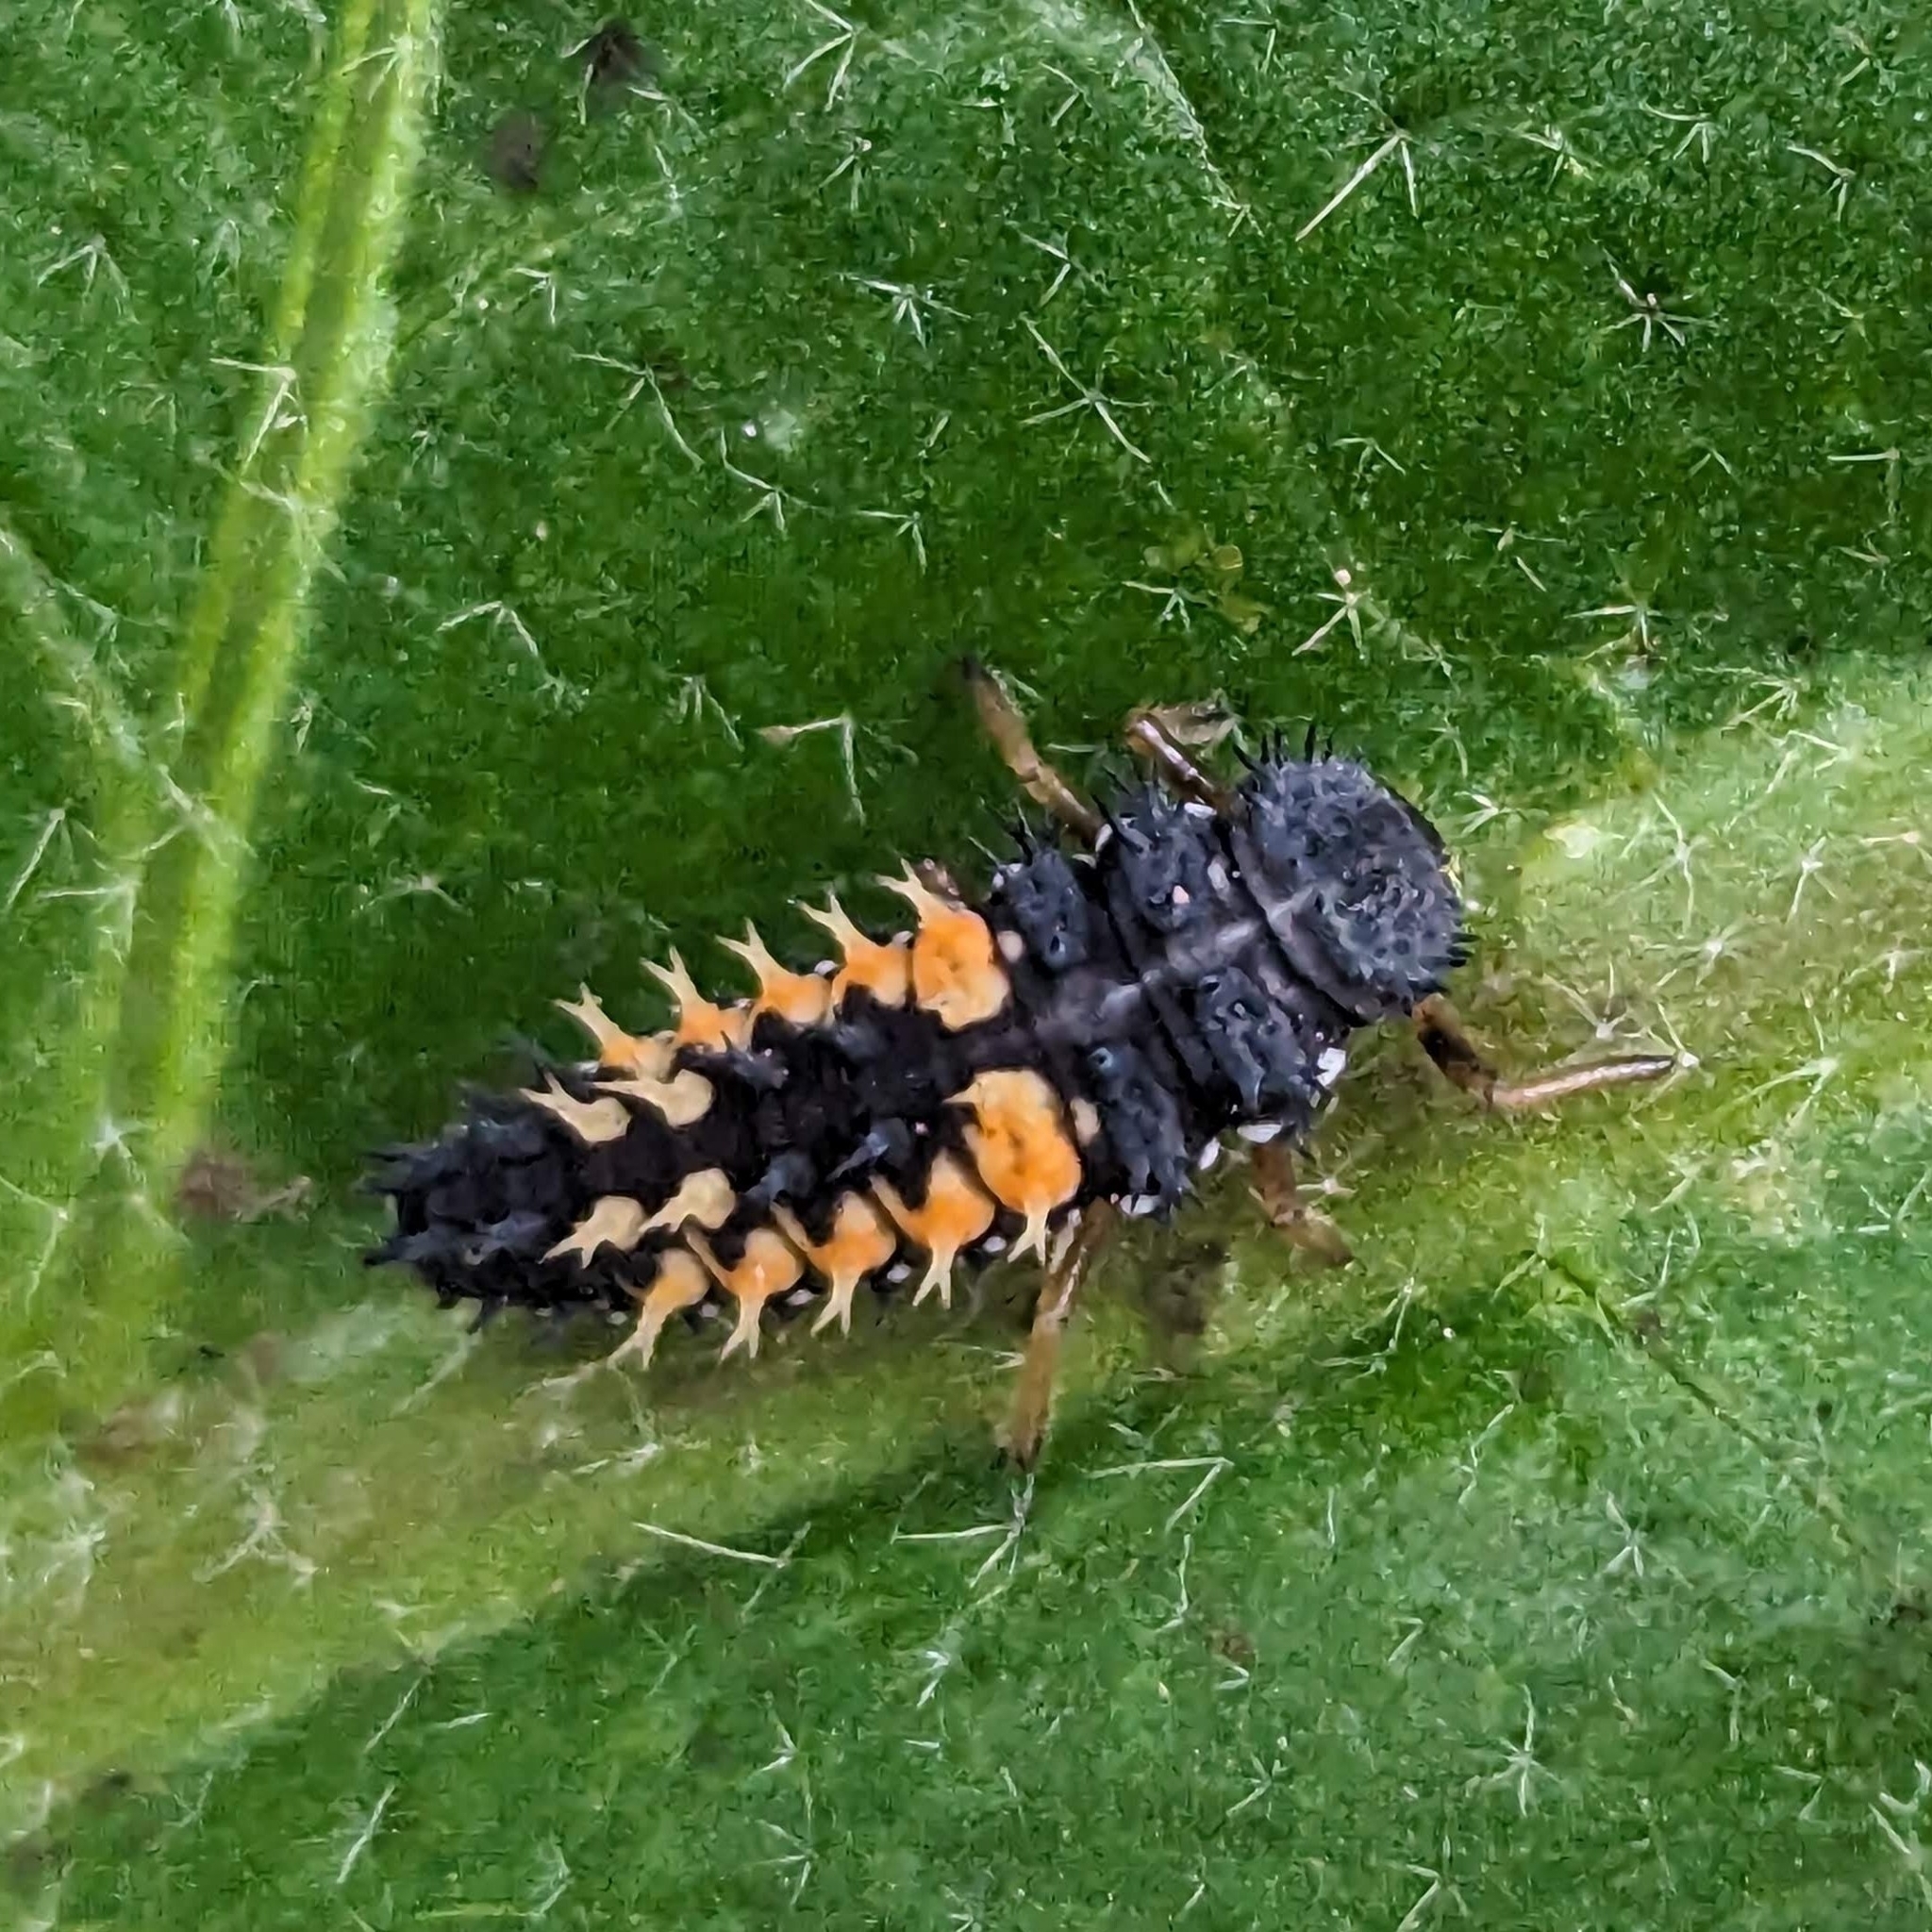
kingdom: Animalia
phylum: Arthropoda
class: Insecta
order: Coleoptera
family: Coccinellidae
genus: Harmonia
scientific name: Harmonia axyridis
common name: Harlequin ladybird
